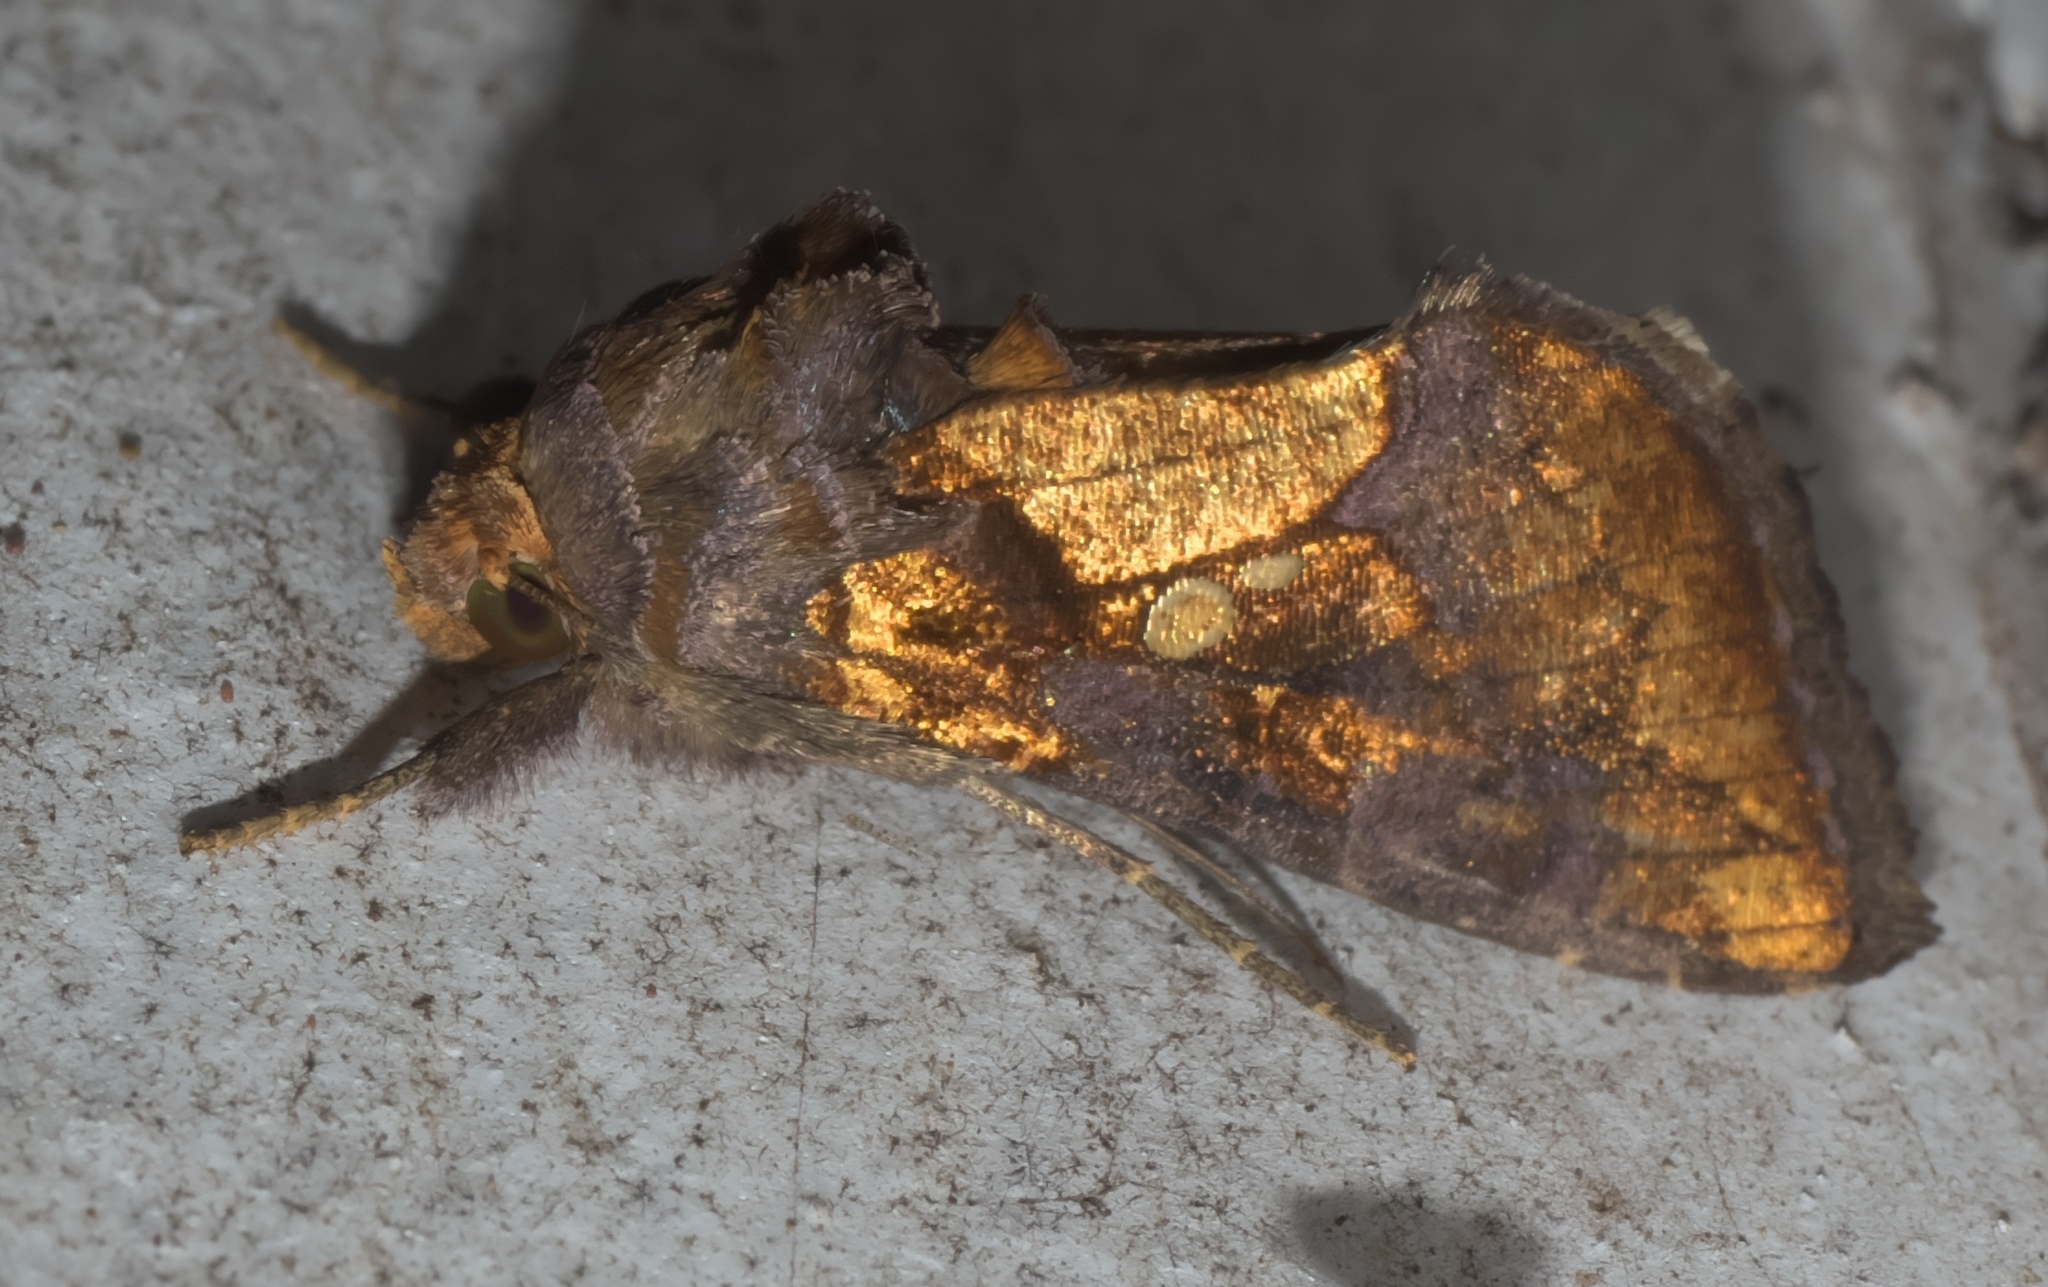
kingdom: Animalia
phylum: Arthropoda
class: Insecta
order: Lepidoptera
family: Noctuidae
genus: Argyrogramma
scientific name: Argyrogramma verruca
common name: Golden looper moth
